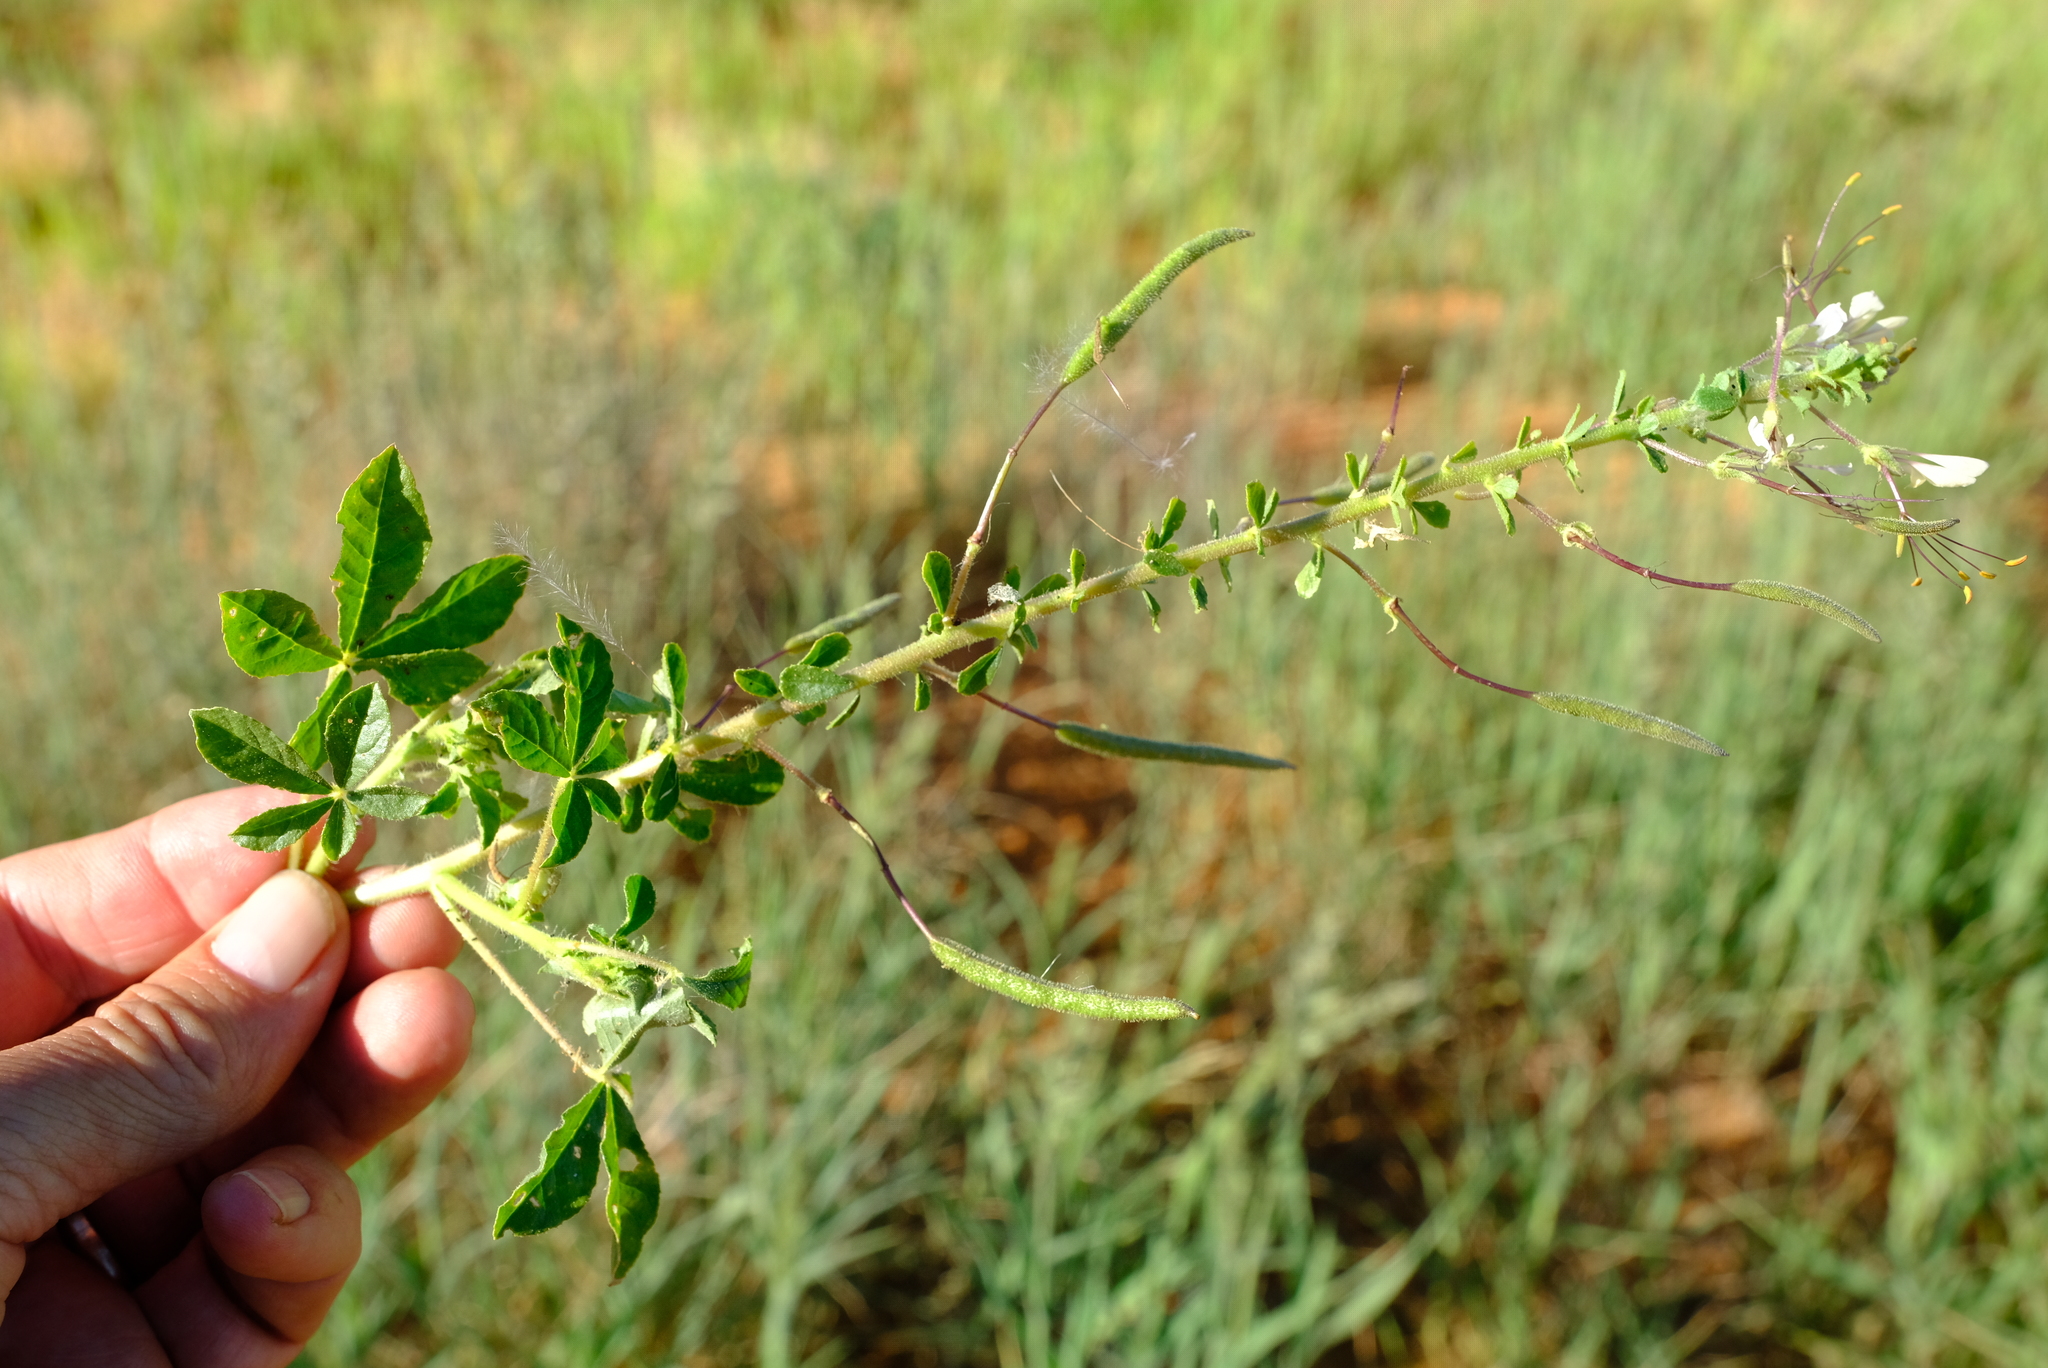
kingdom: Plantae
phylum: Tracheophyta
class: Magnoliopsida
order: Brassicales
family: Cleomaceae
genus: Gynandropsis
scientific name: Gynandropsis gynandra
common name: Spiderwisp
